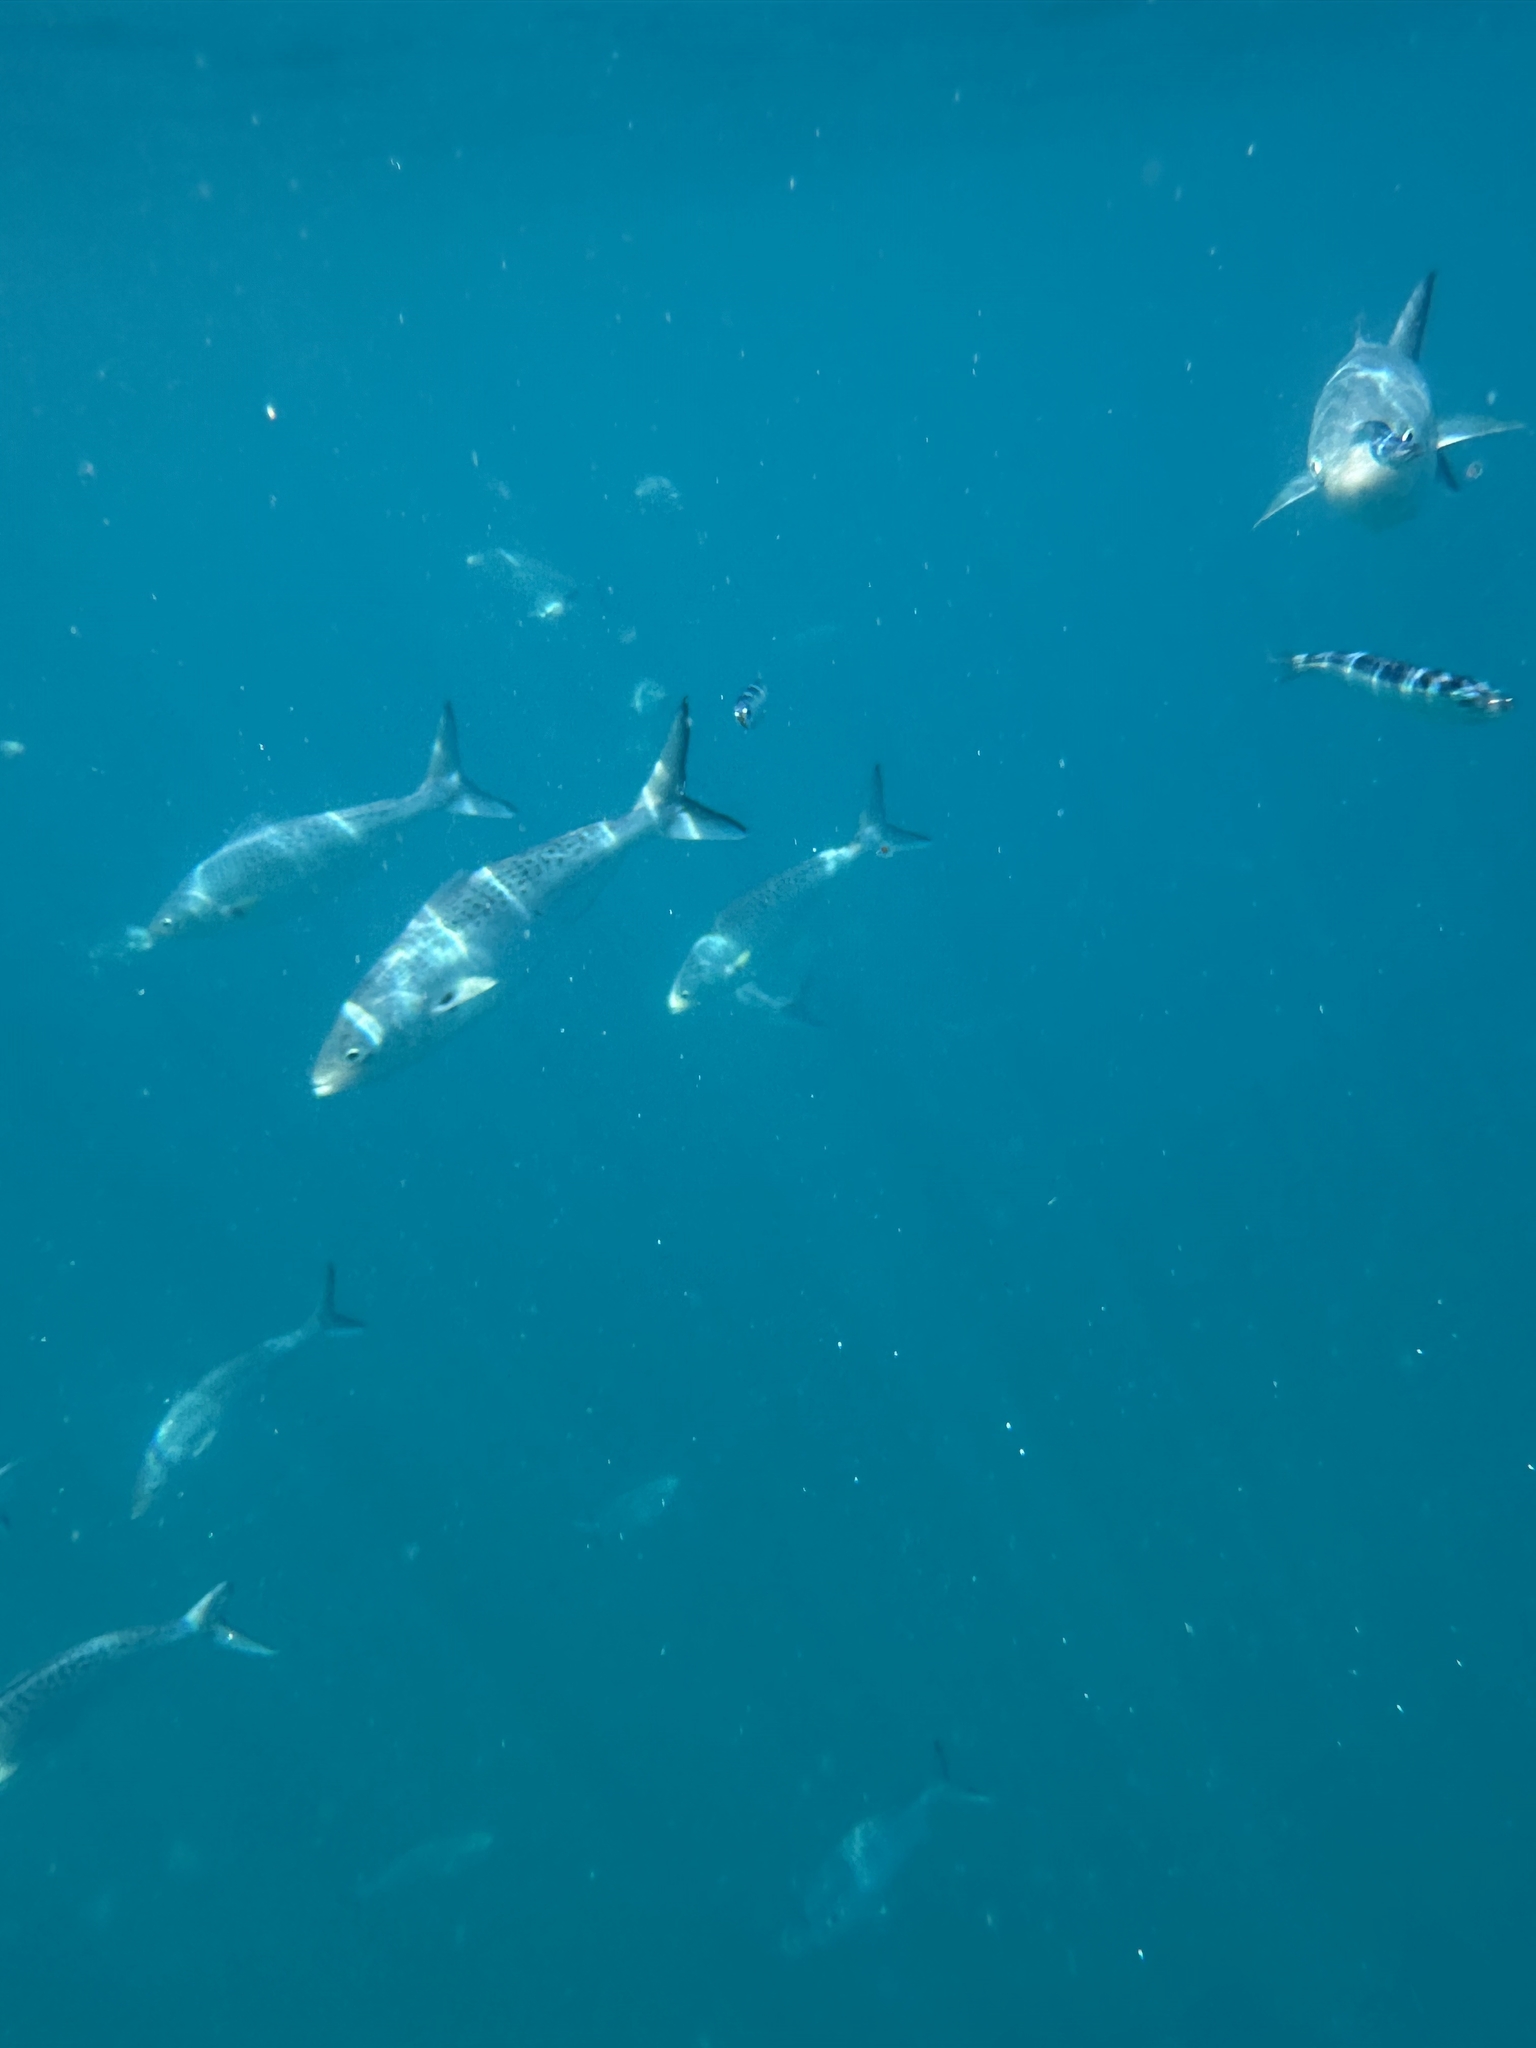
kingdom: Animalia
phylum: Chordata
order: Perciformes
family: Arripidae
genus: Arripis
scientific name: Arripis trutta
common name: Kahawai
